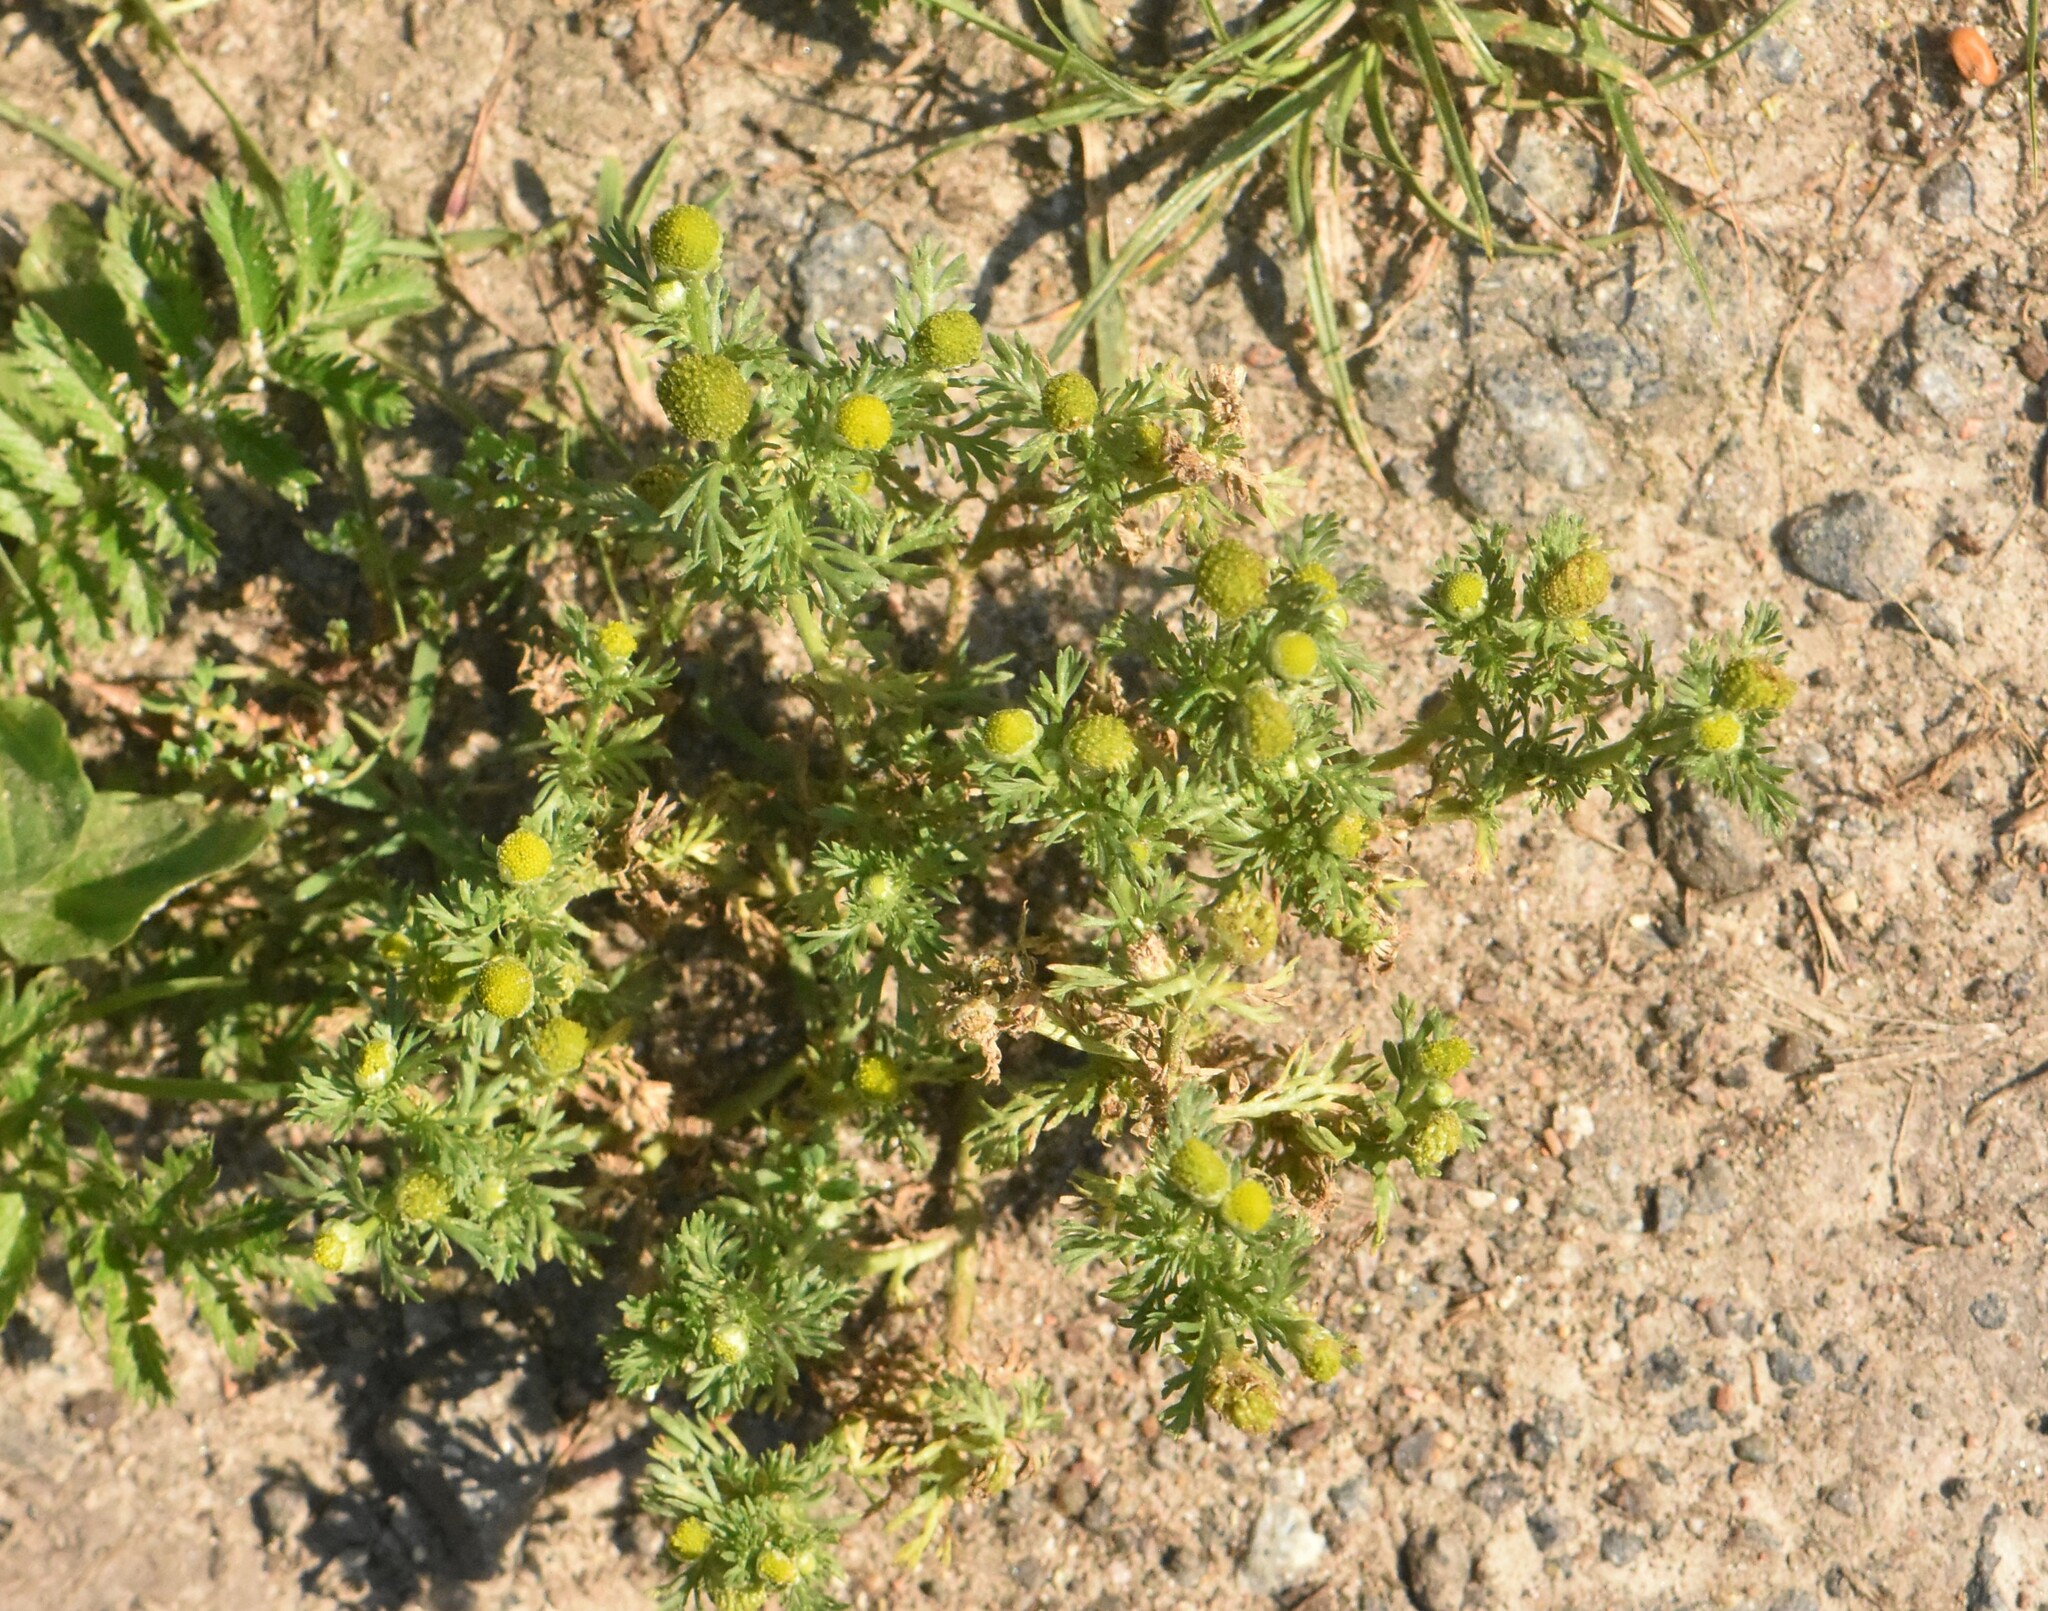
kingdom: Plantae
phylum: Tracheophyta
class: Magnoliopsida
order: Asterales
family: Asteraceae
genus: Matricaria
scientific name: Matricaria discoidea
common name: Disc mayweed
